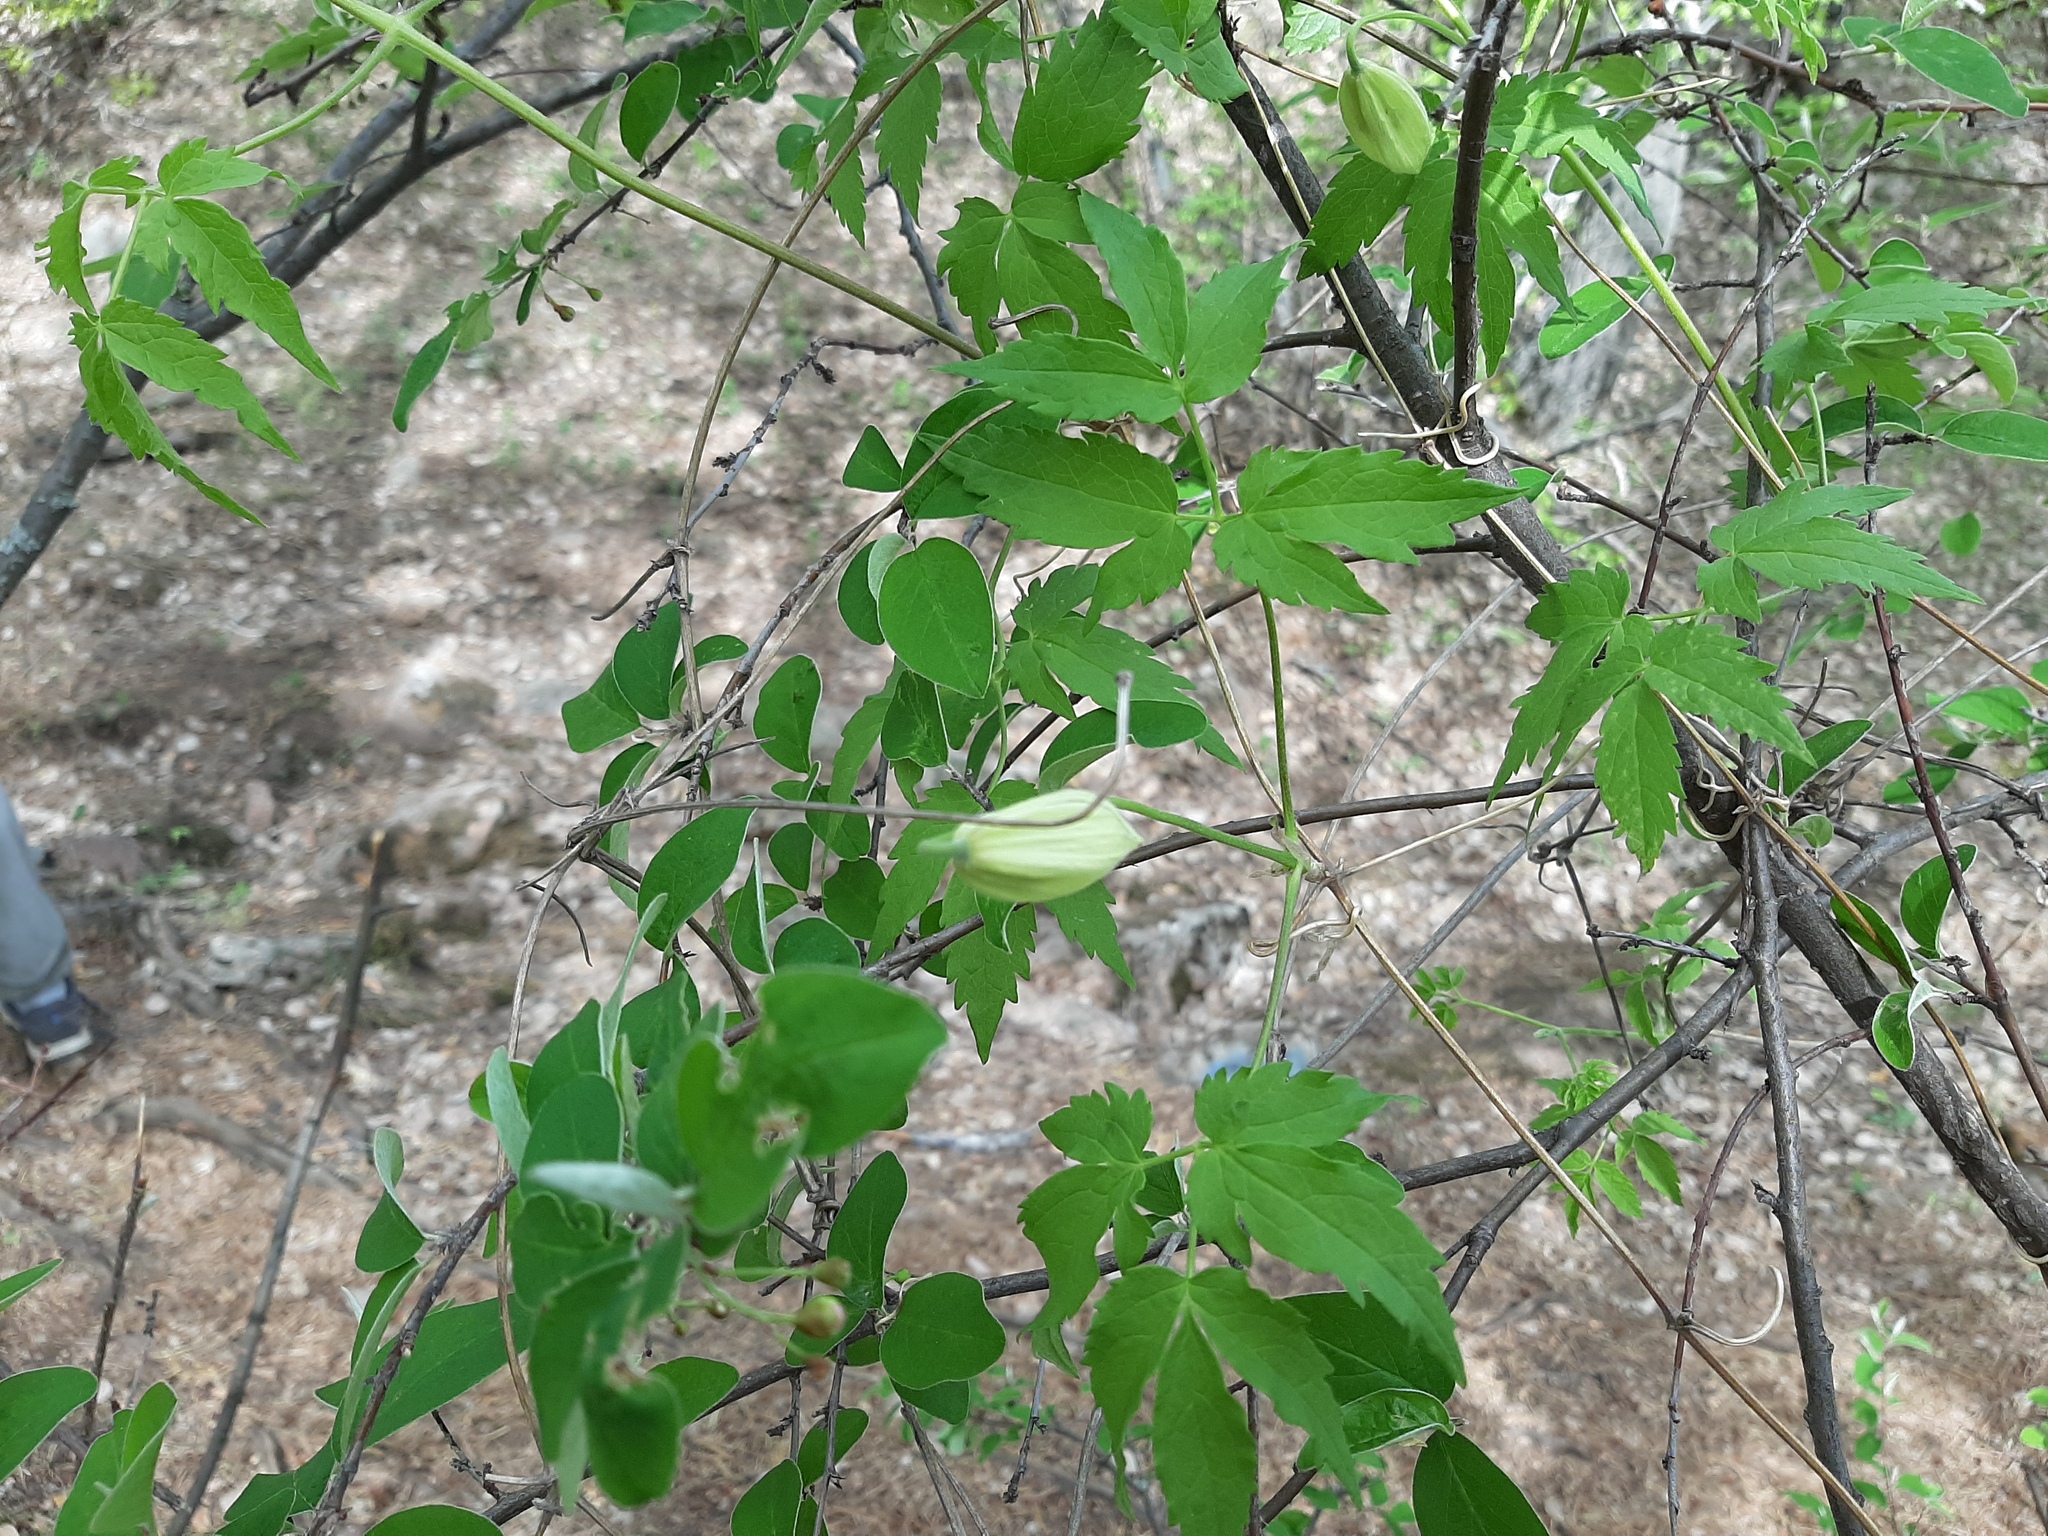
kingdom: Plantae
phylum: Tracheophyta
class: Magnoliopsida
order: Ranunculales
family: Ranunculaceae
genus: Clematis
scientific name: Clematis sibirica
